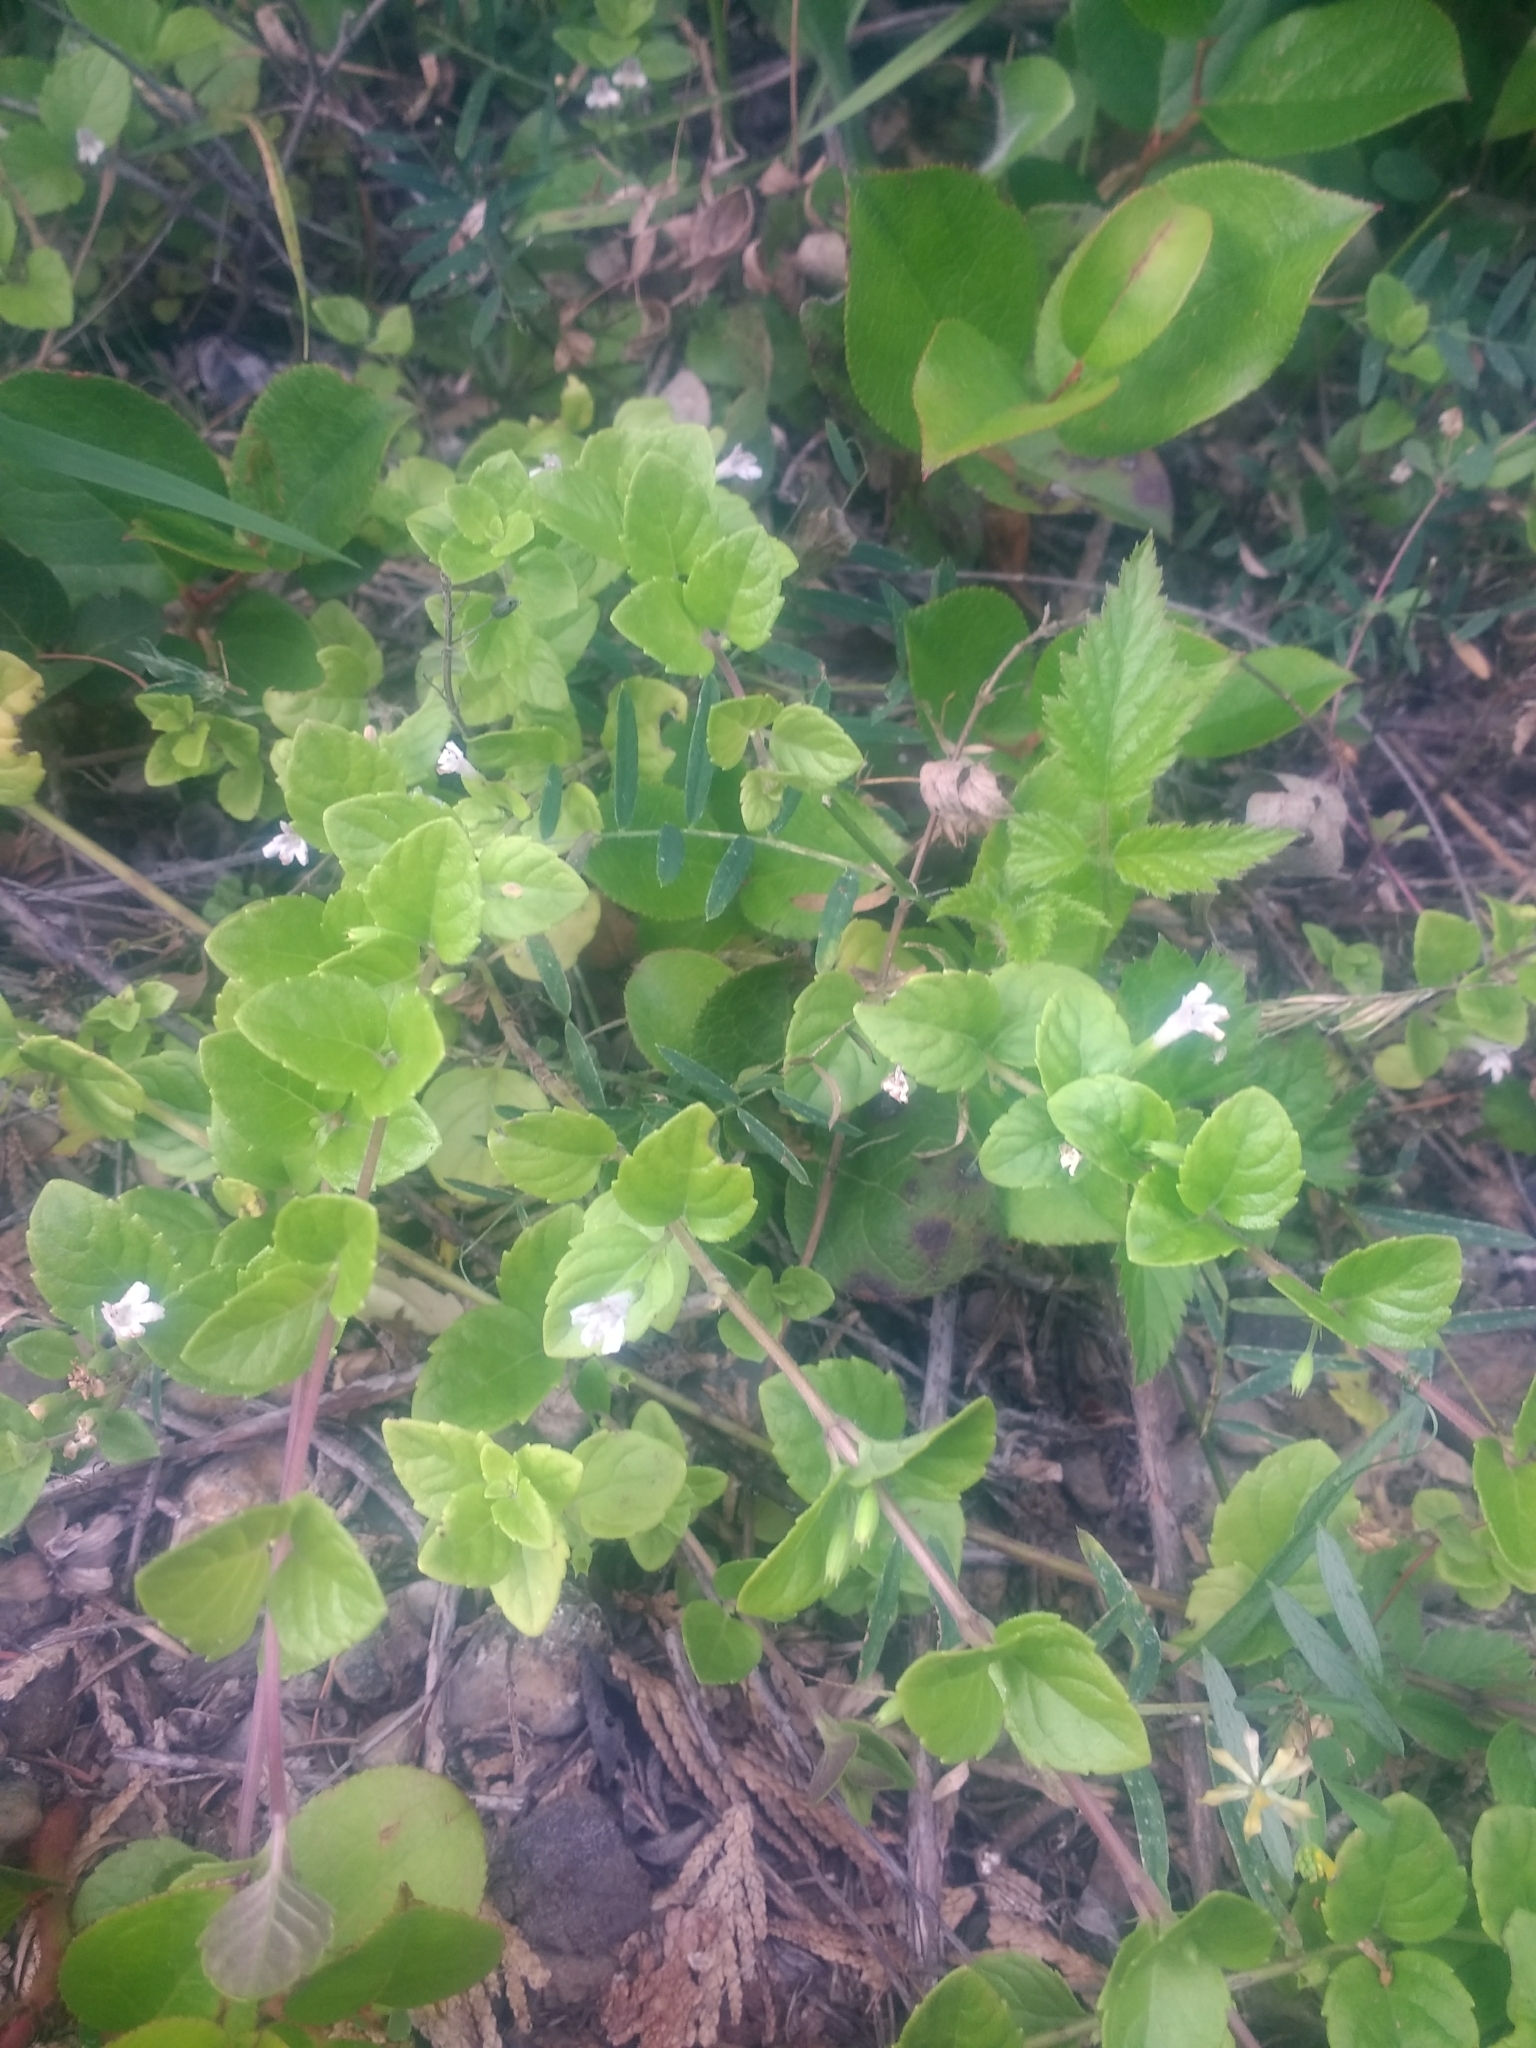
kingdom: Plantae
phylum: Tracheophyta
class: Magnoliopsida
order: Lamiales
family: Lamiaceae
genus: Micromeria
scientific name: Micromeria douglasii
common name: Yerba buena
